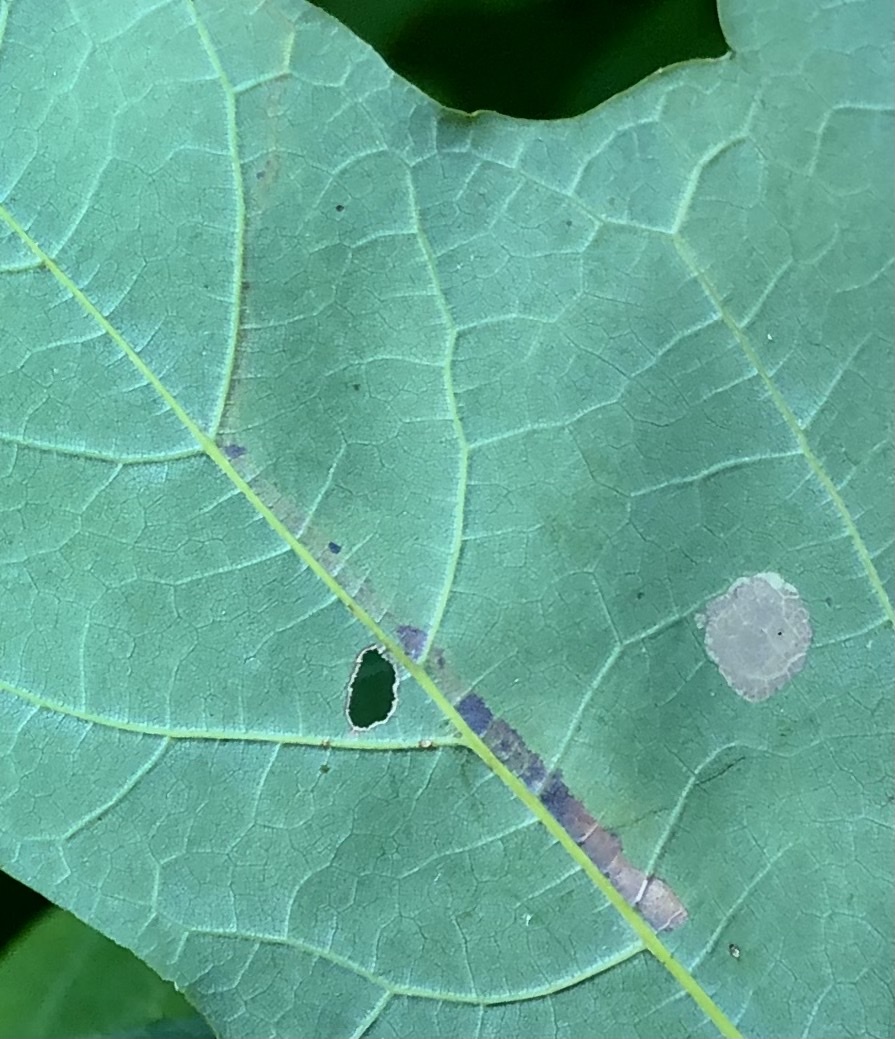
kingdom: Animalia
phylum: Arthropoda
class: Insecta
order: Lepidoptera
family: Nepticulidae
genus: Glaucolepis
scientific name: Glaucolepis saccharella
